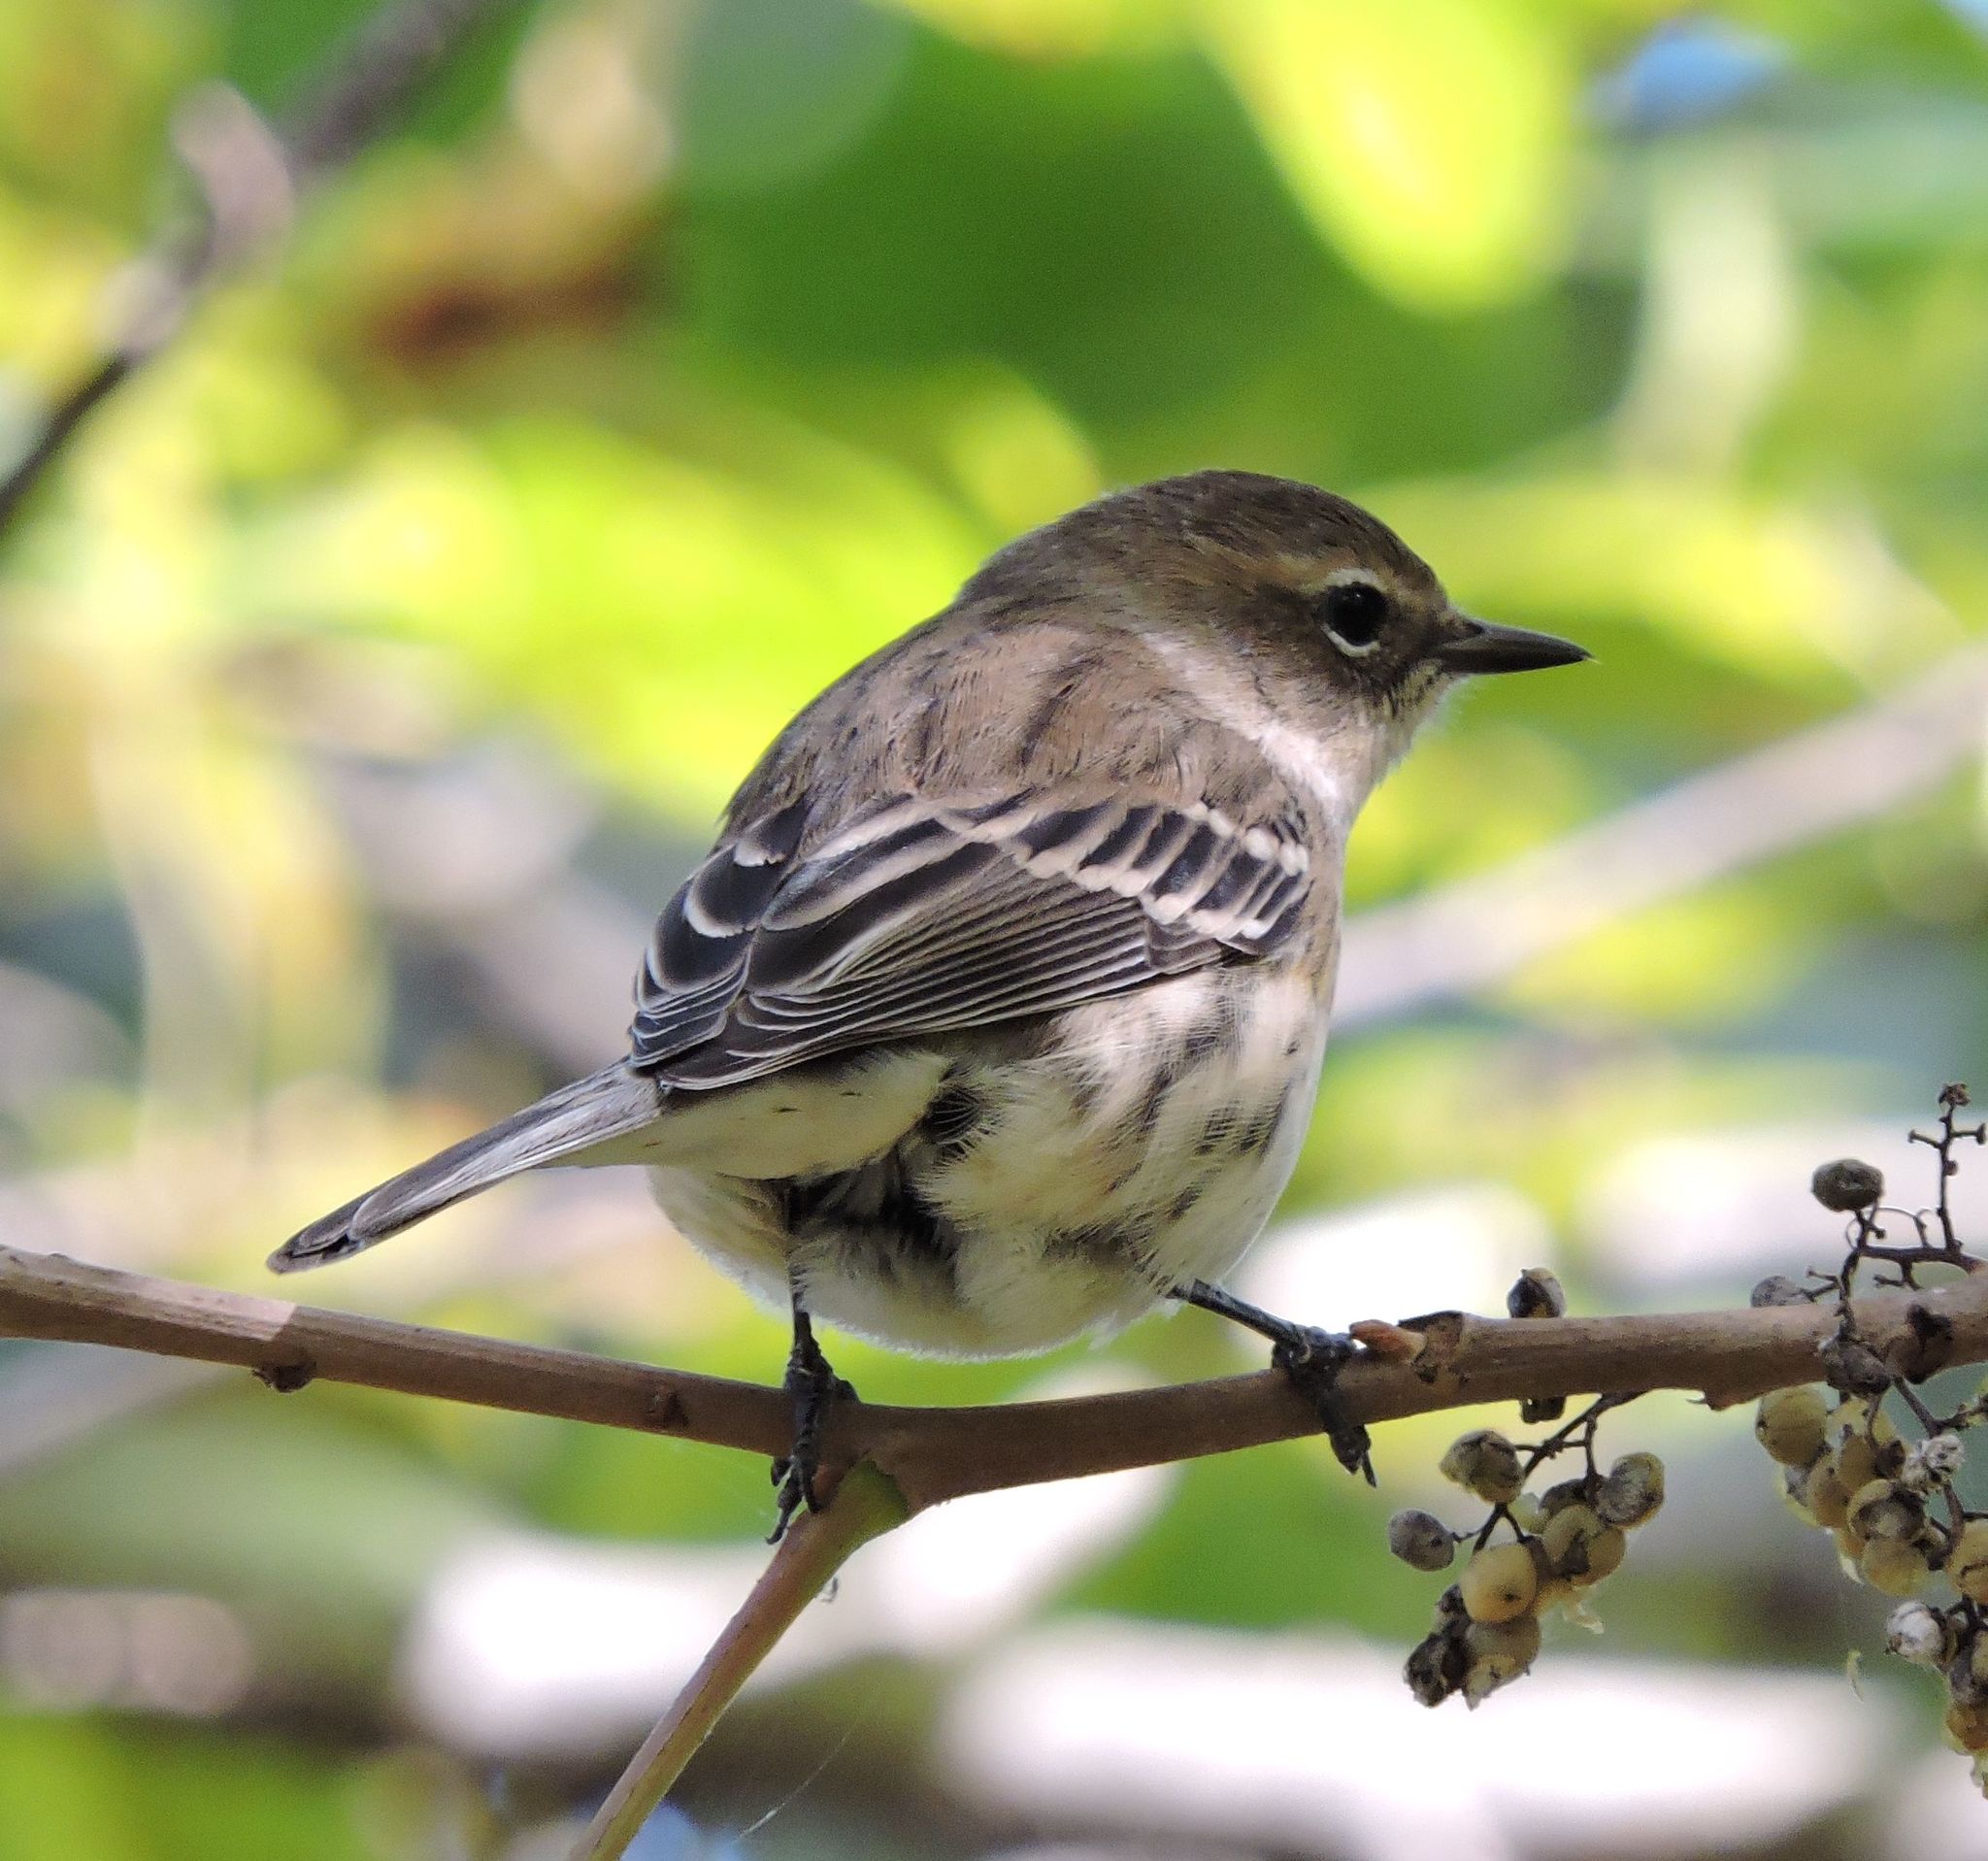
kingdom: Animalia
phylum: Chordata
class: Aves
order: Passeriformes
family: Parulidae
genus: Setophaga
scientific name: Setophaga coronata
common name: Myrtle warbler
